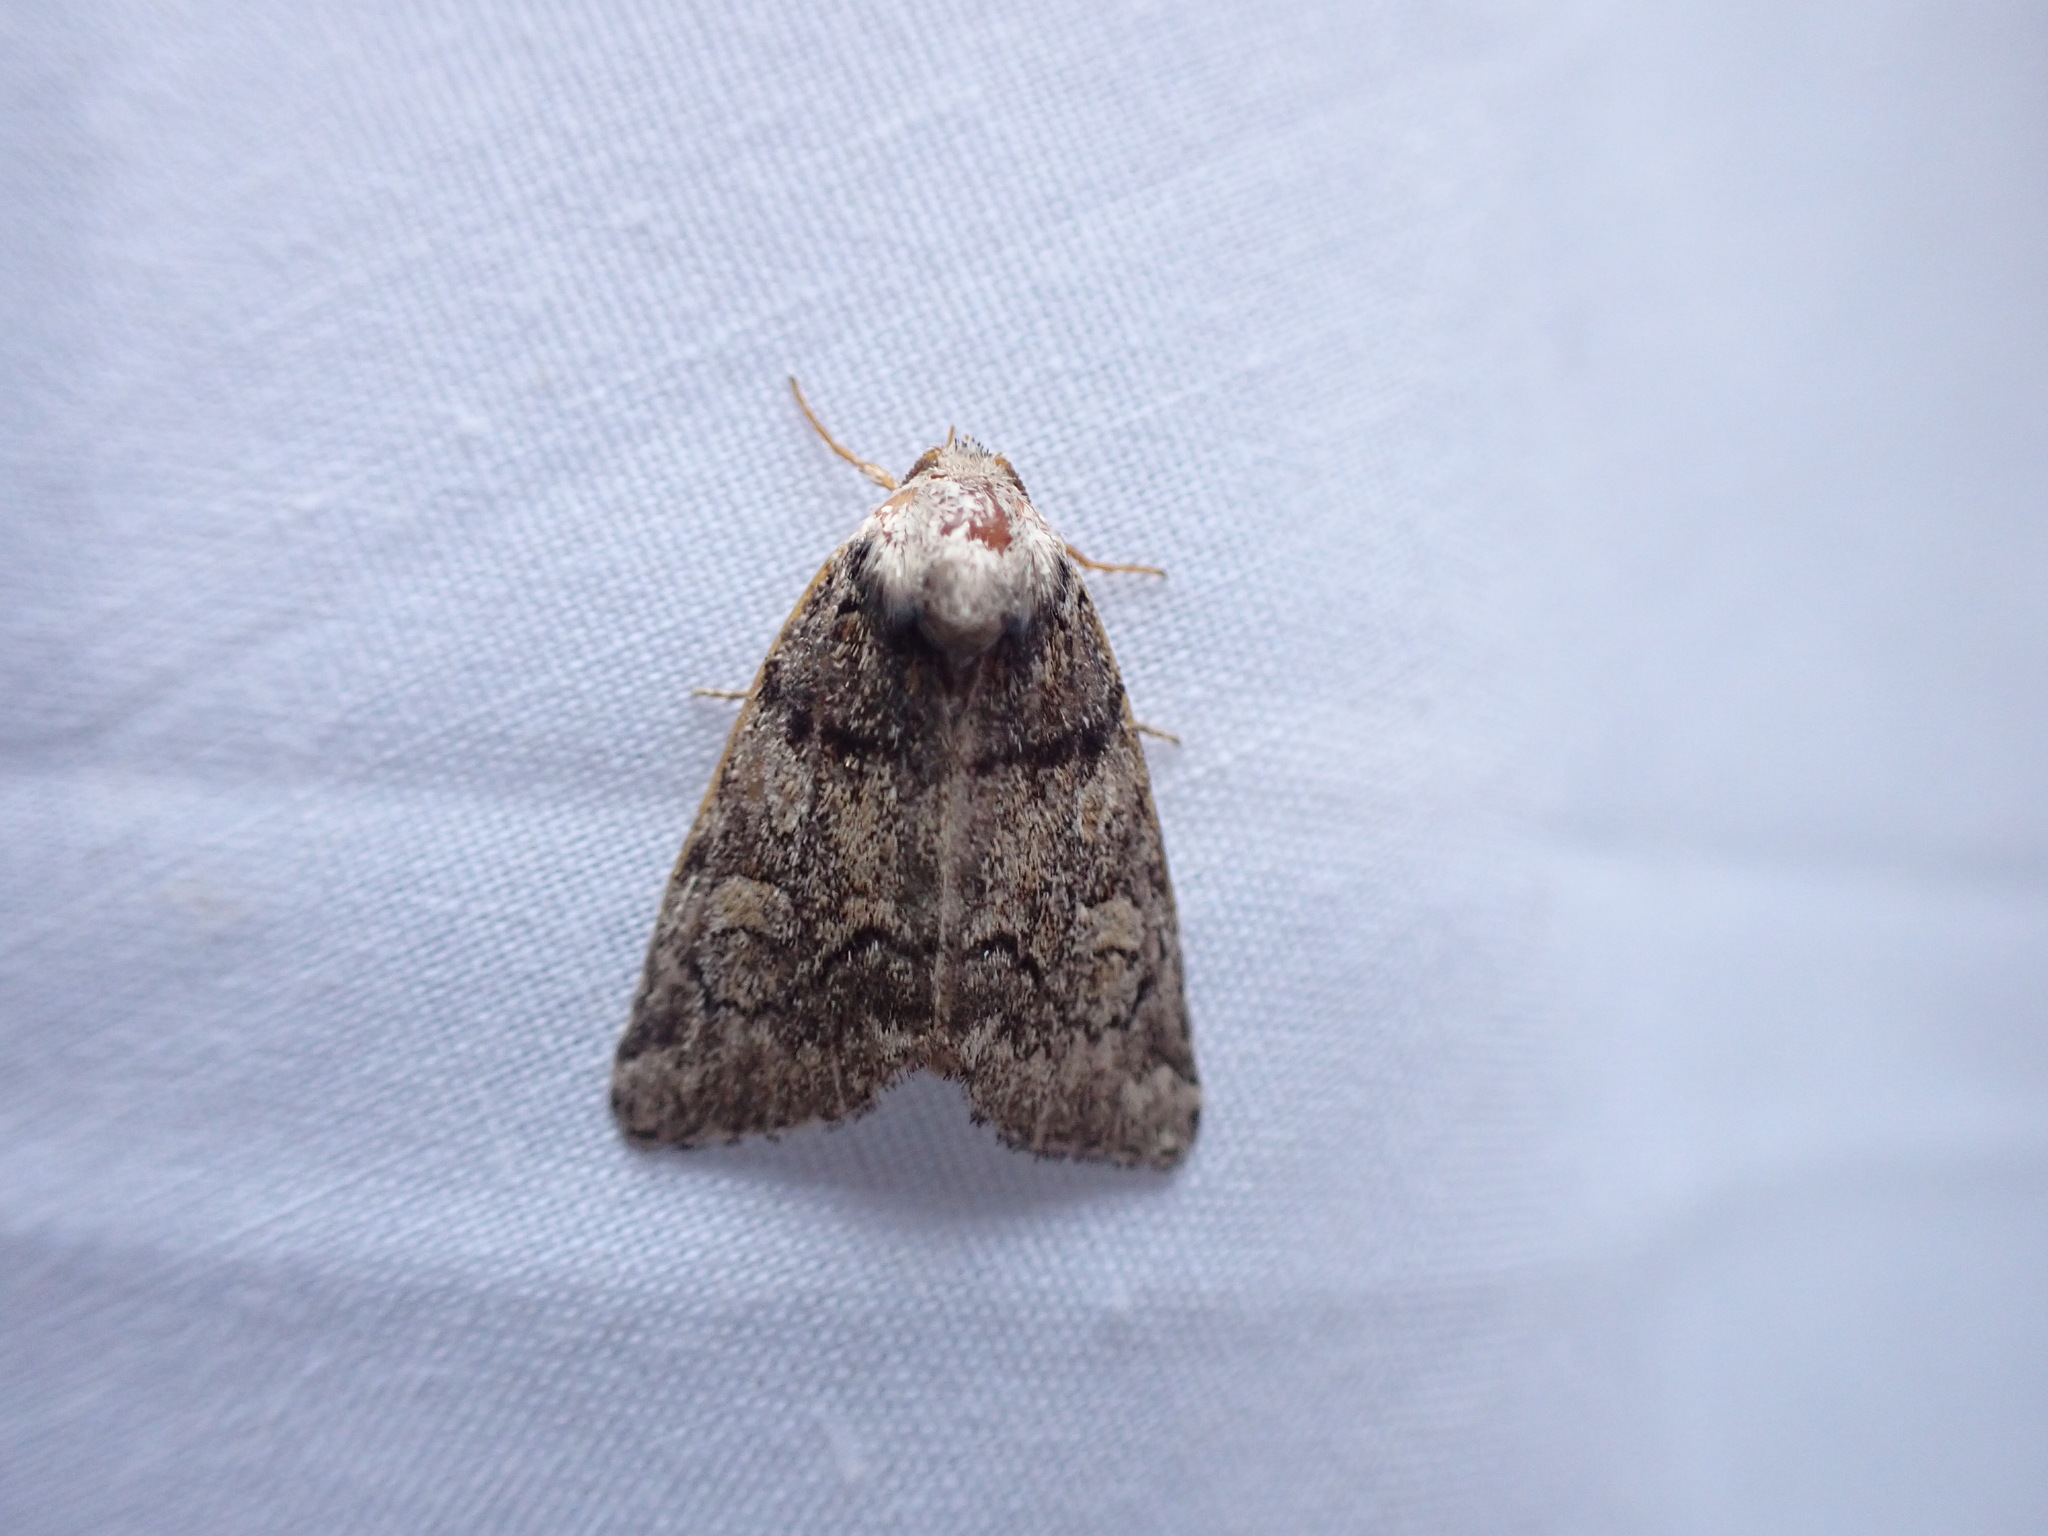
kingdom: Animalia
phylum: Arthropoda
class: Insecta
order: Lepidoptera
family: Noctuidae
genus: Cosmia
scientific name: Cosmia praeacuta
